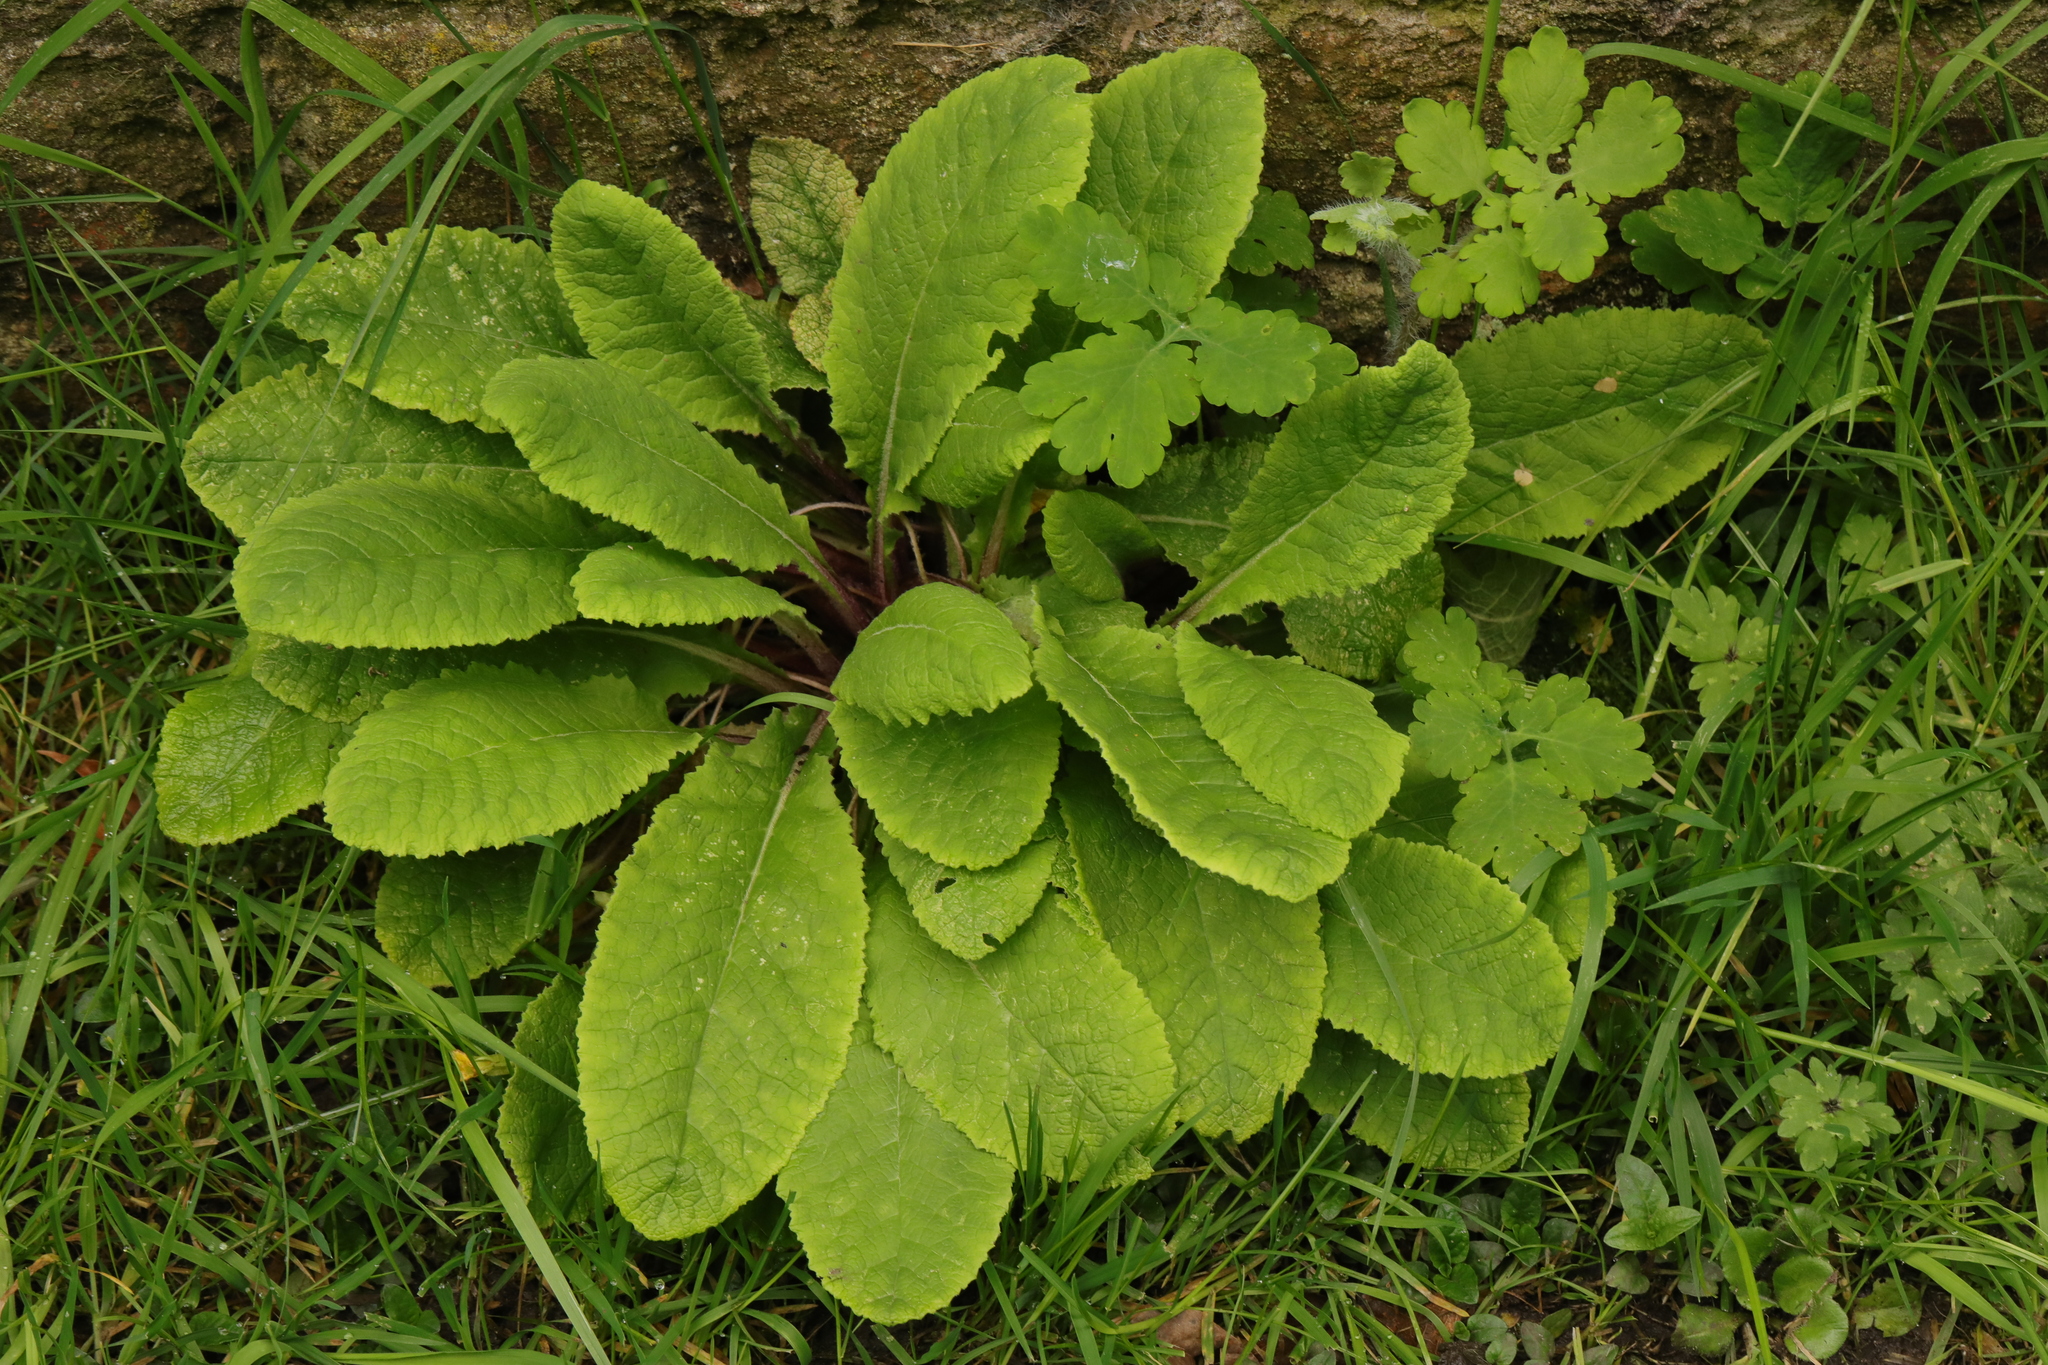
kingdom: Plantae
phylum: Tracheophyta
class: Magnoliopsida
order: Ericales
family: Primulaceae
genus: Primula
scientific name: Primula vulgaris
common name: Primrose
